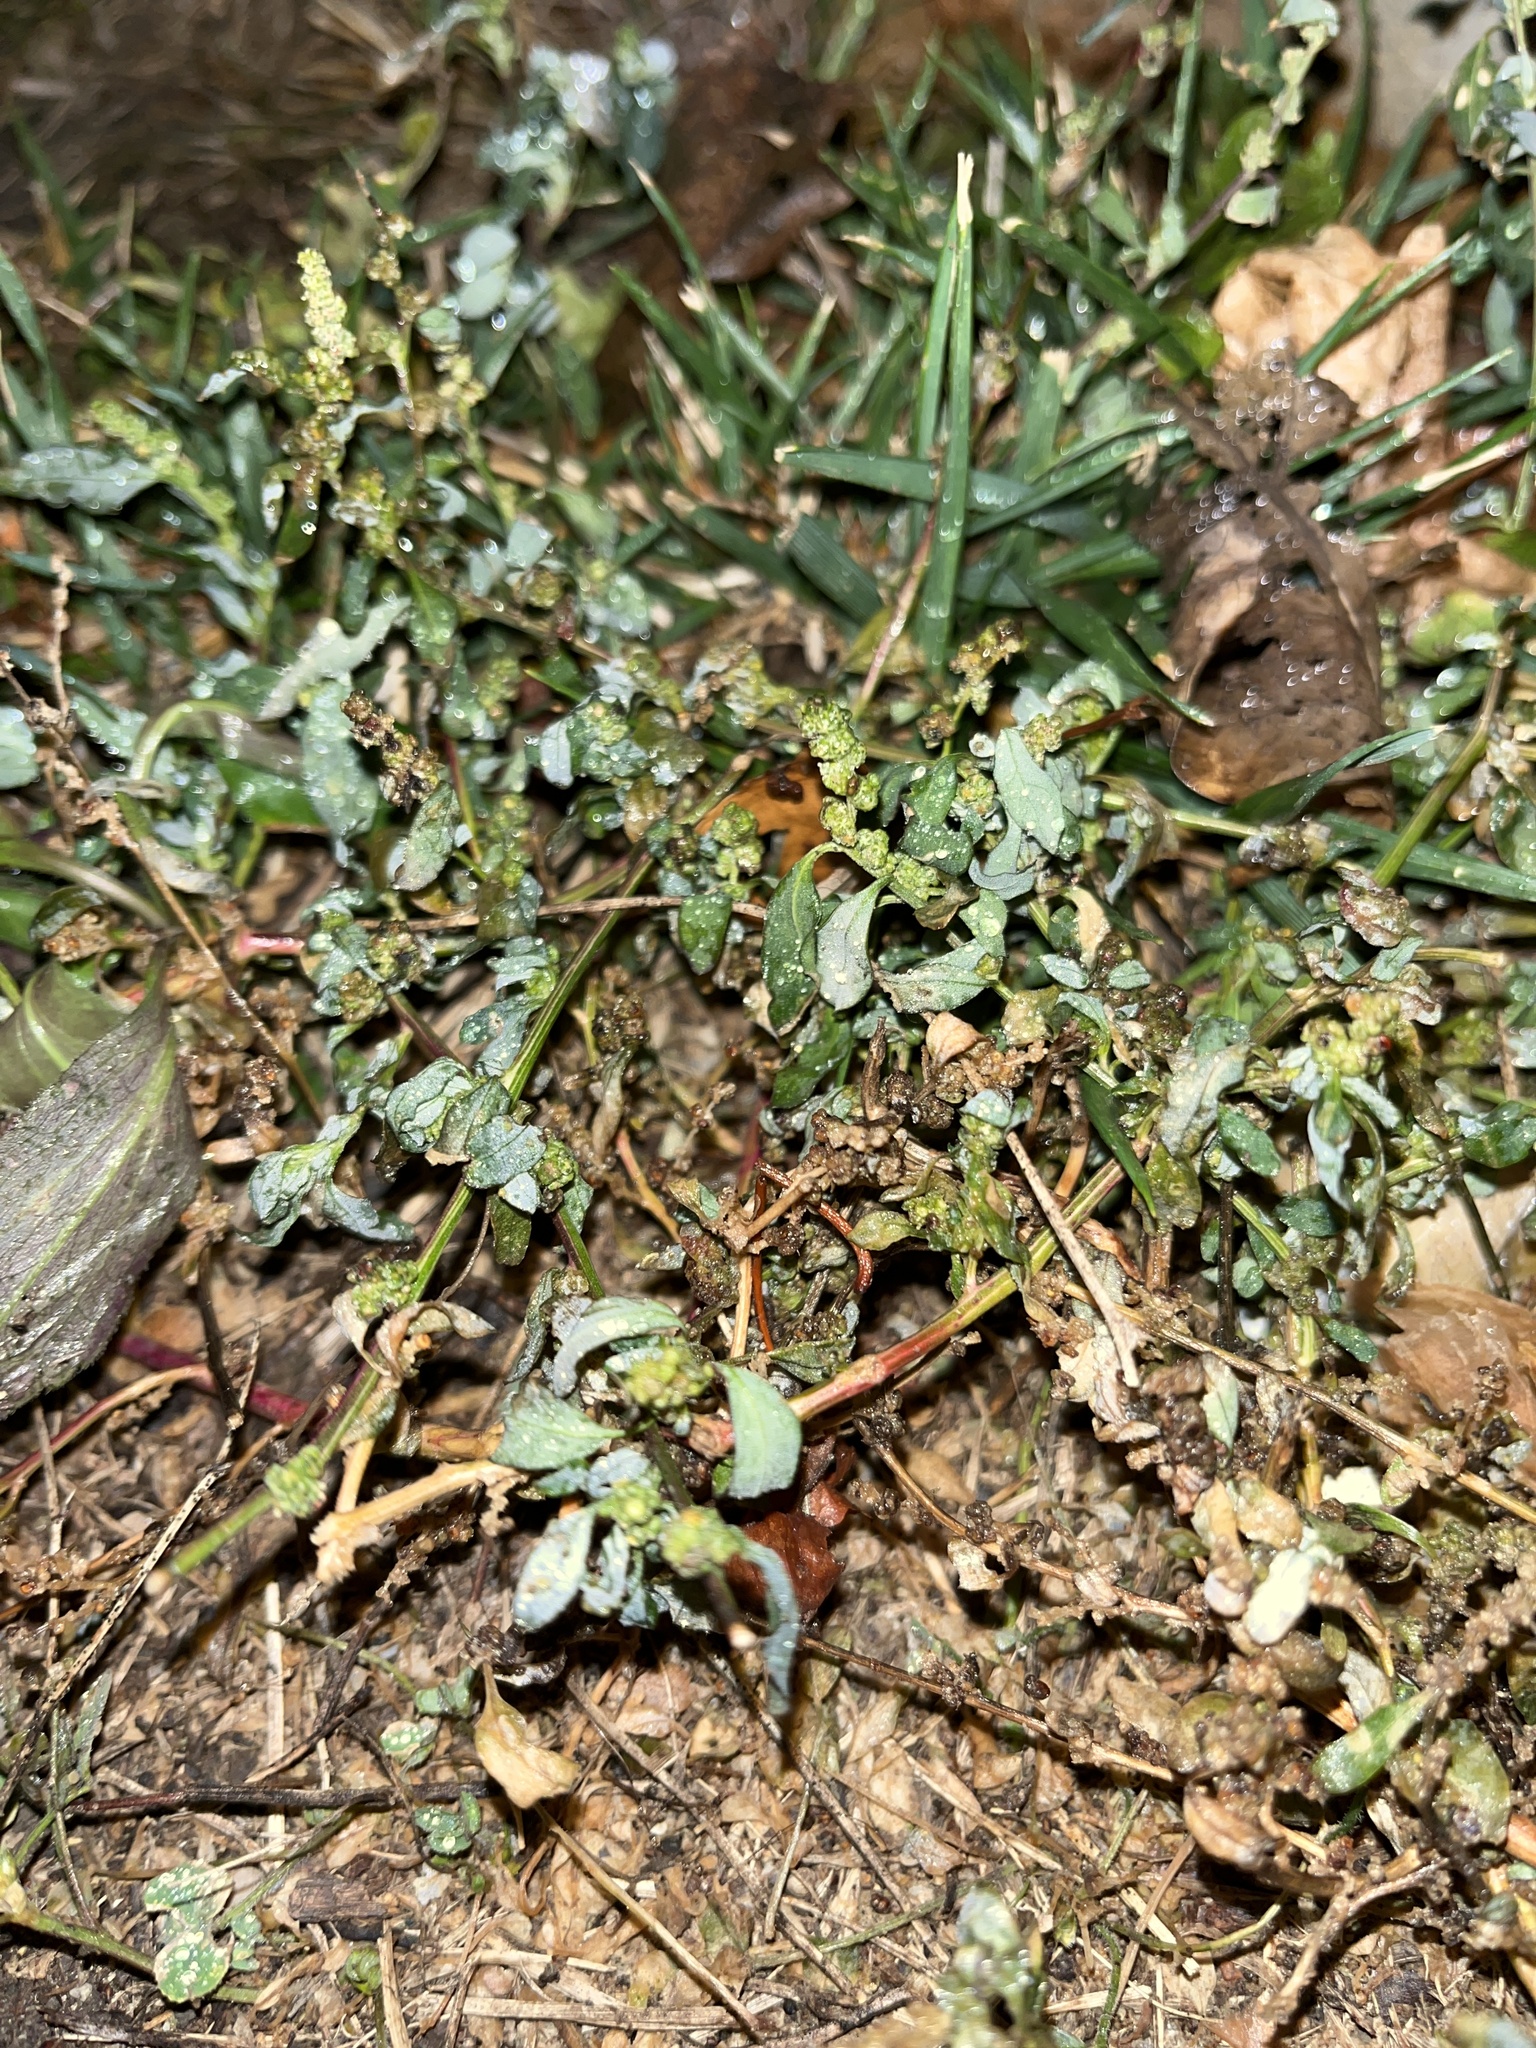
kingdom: Plantae
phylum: Tracheophyta
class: Magnoliopsida
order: Caryophyllales
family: Polygonaceae
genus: Polygonum
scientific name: Polygonum aviculare
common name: Prostrate knotweed
